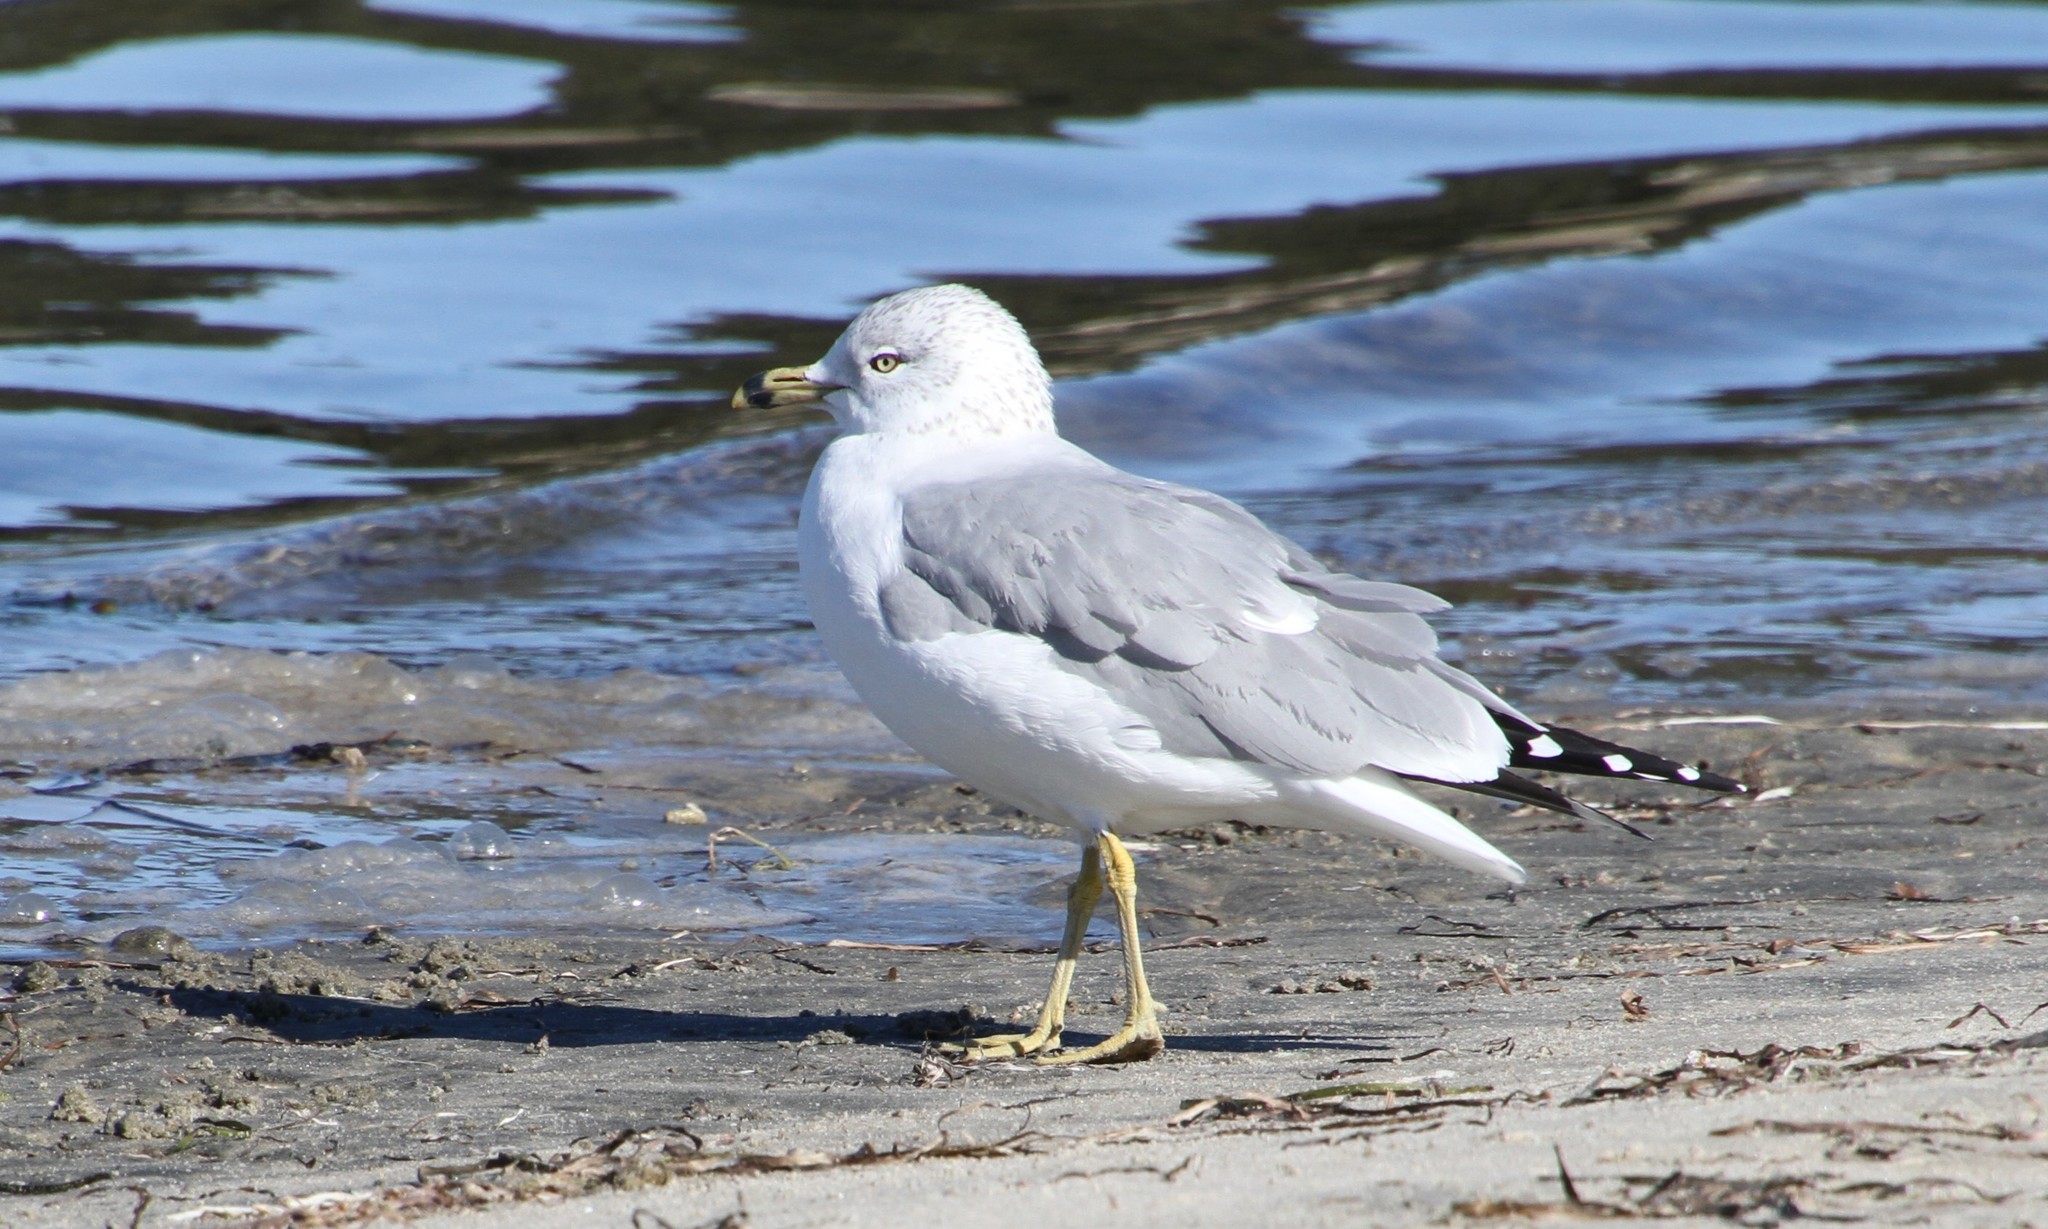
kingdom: Animalia
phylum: Chordata
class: Aves
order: Charadriiformes
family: Laridae
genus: Larus
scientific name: Larus delawarensis
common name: Ring-billed gull
